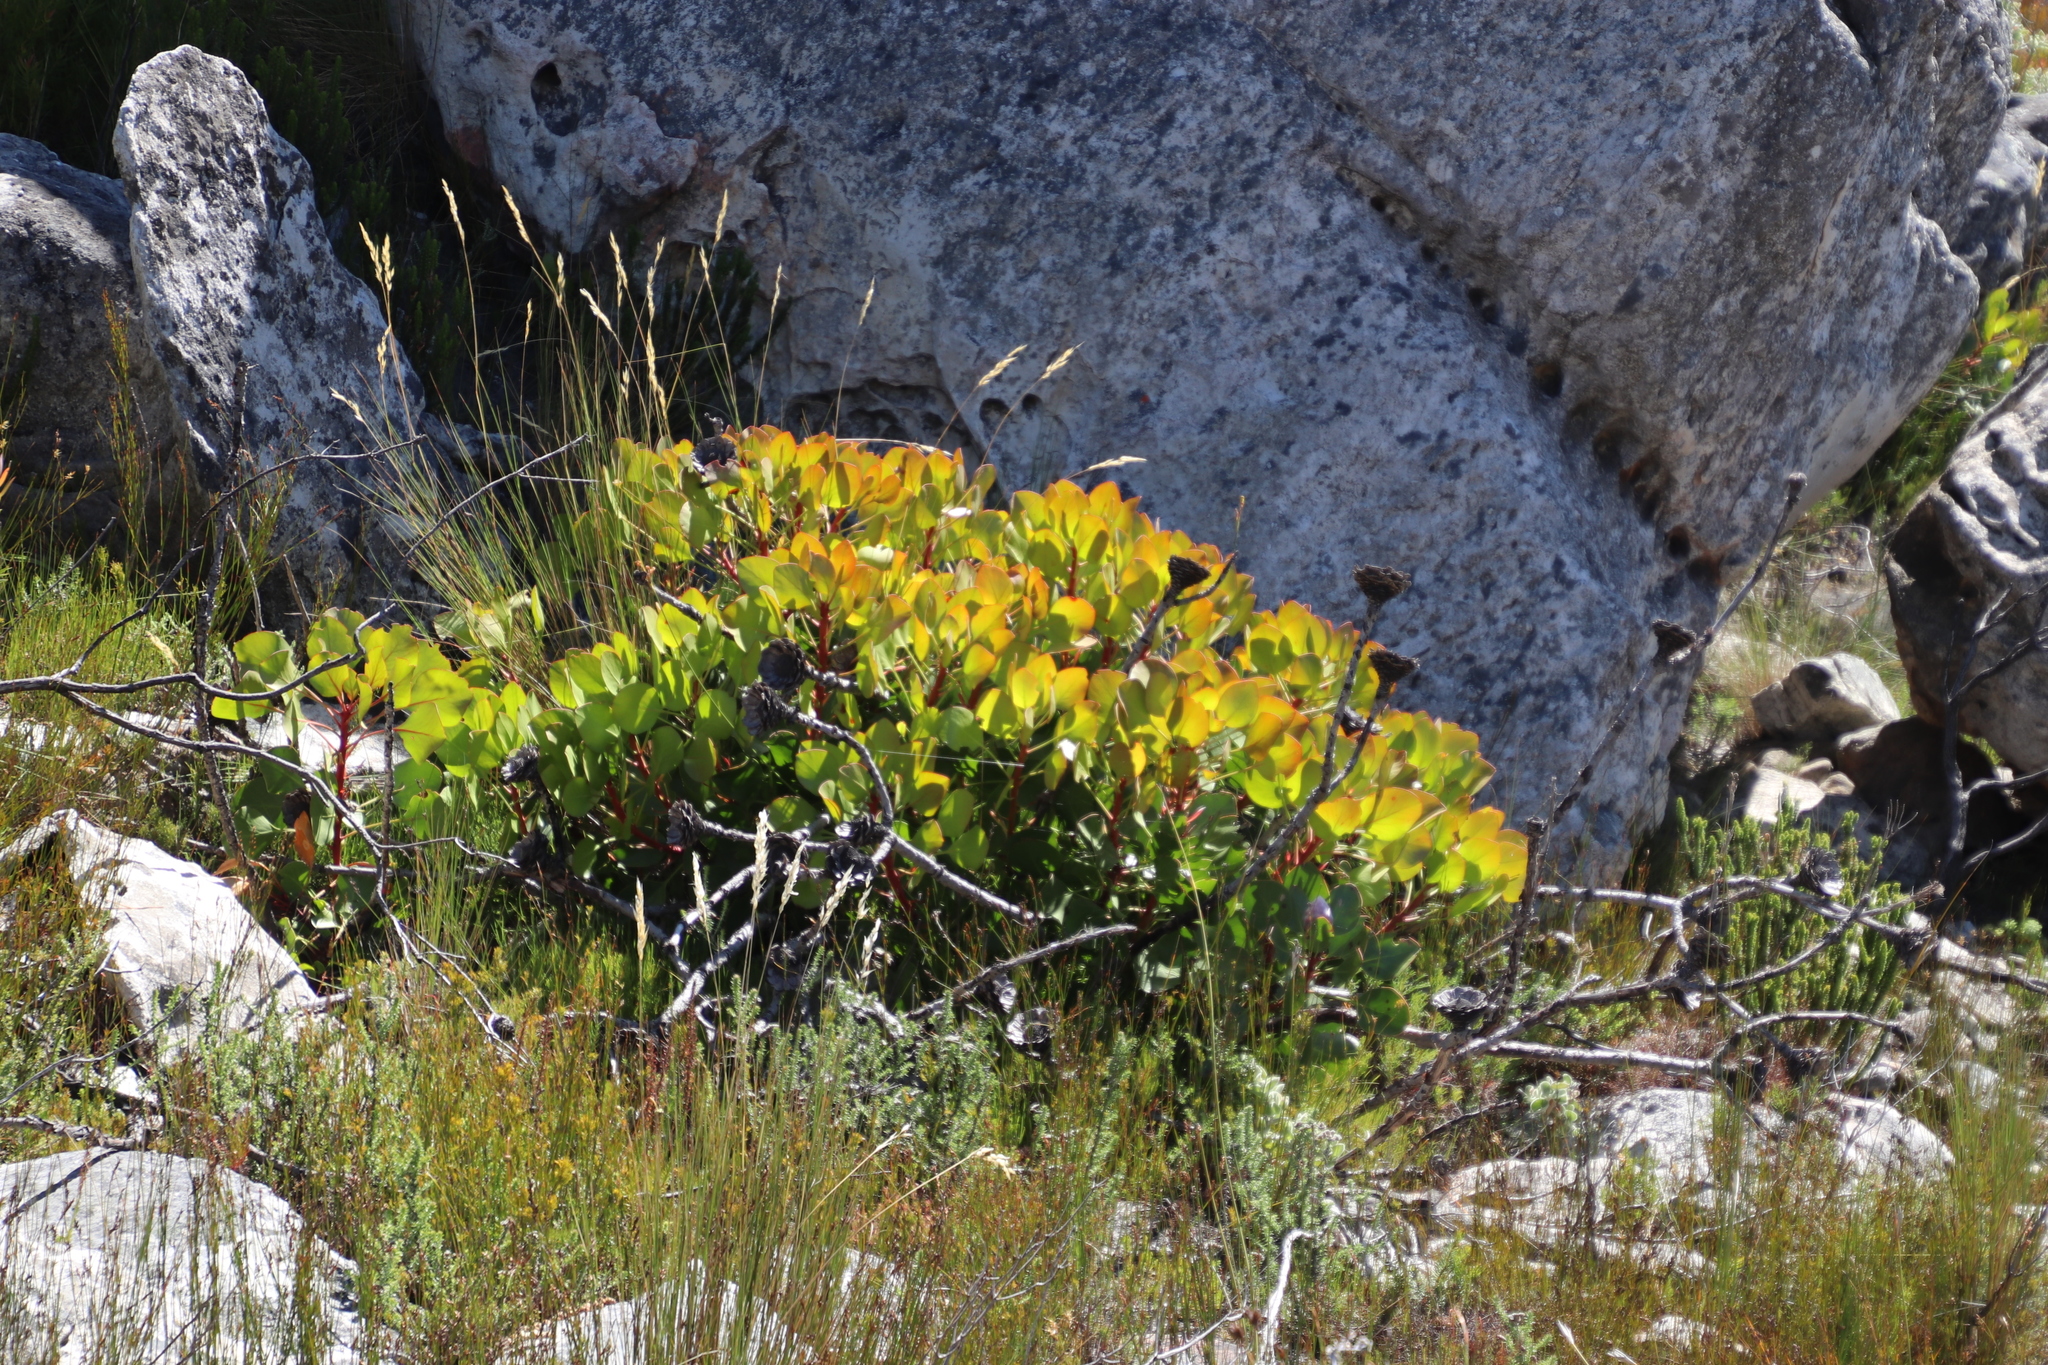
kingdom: Plantae
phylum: Tracheophyta
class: Magnoliopsida
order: Proteales
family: Proteaceae
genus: Protea
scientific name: Protea cynaroides
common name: King protea
